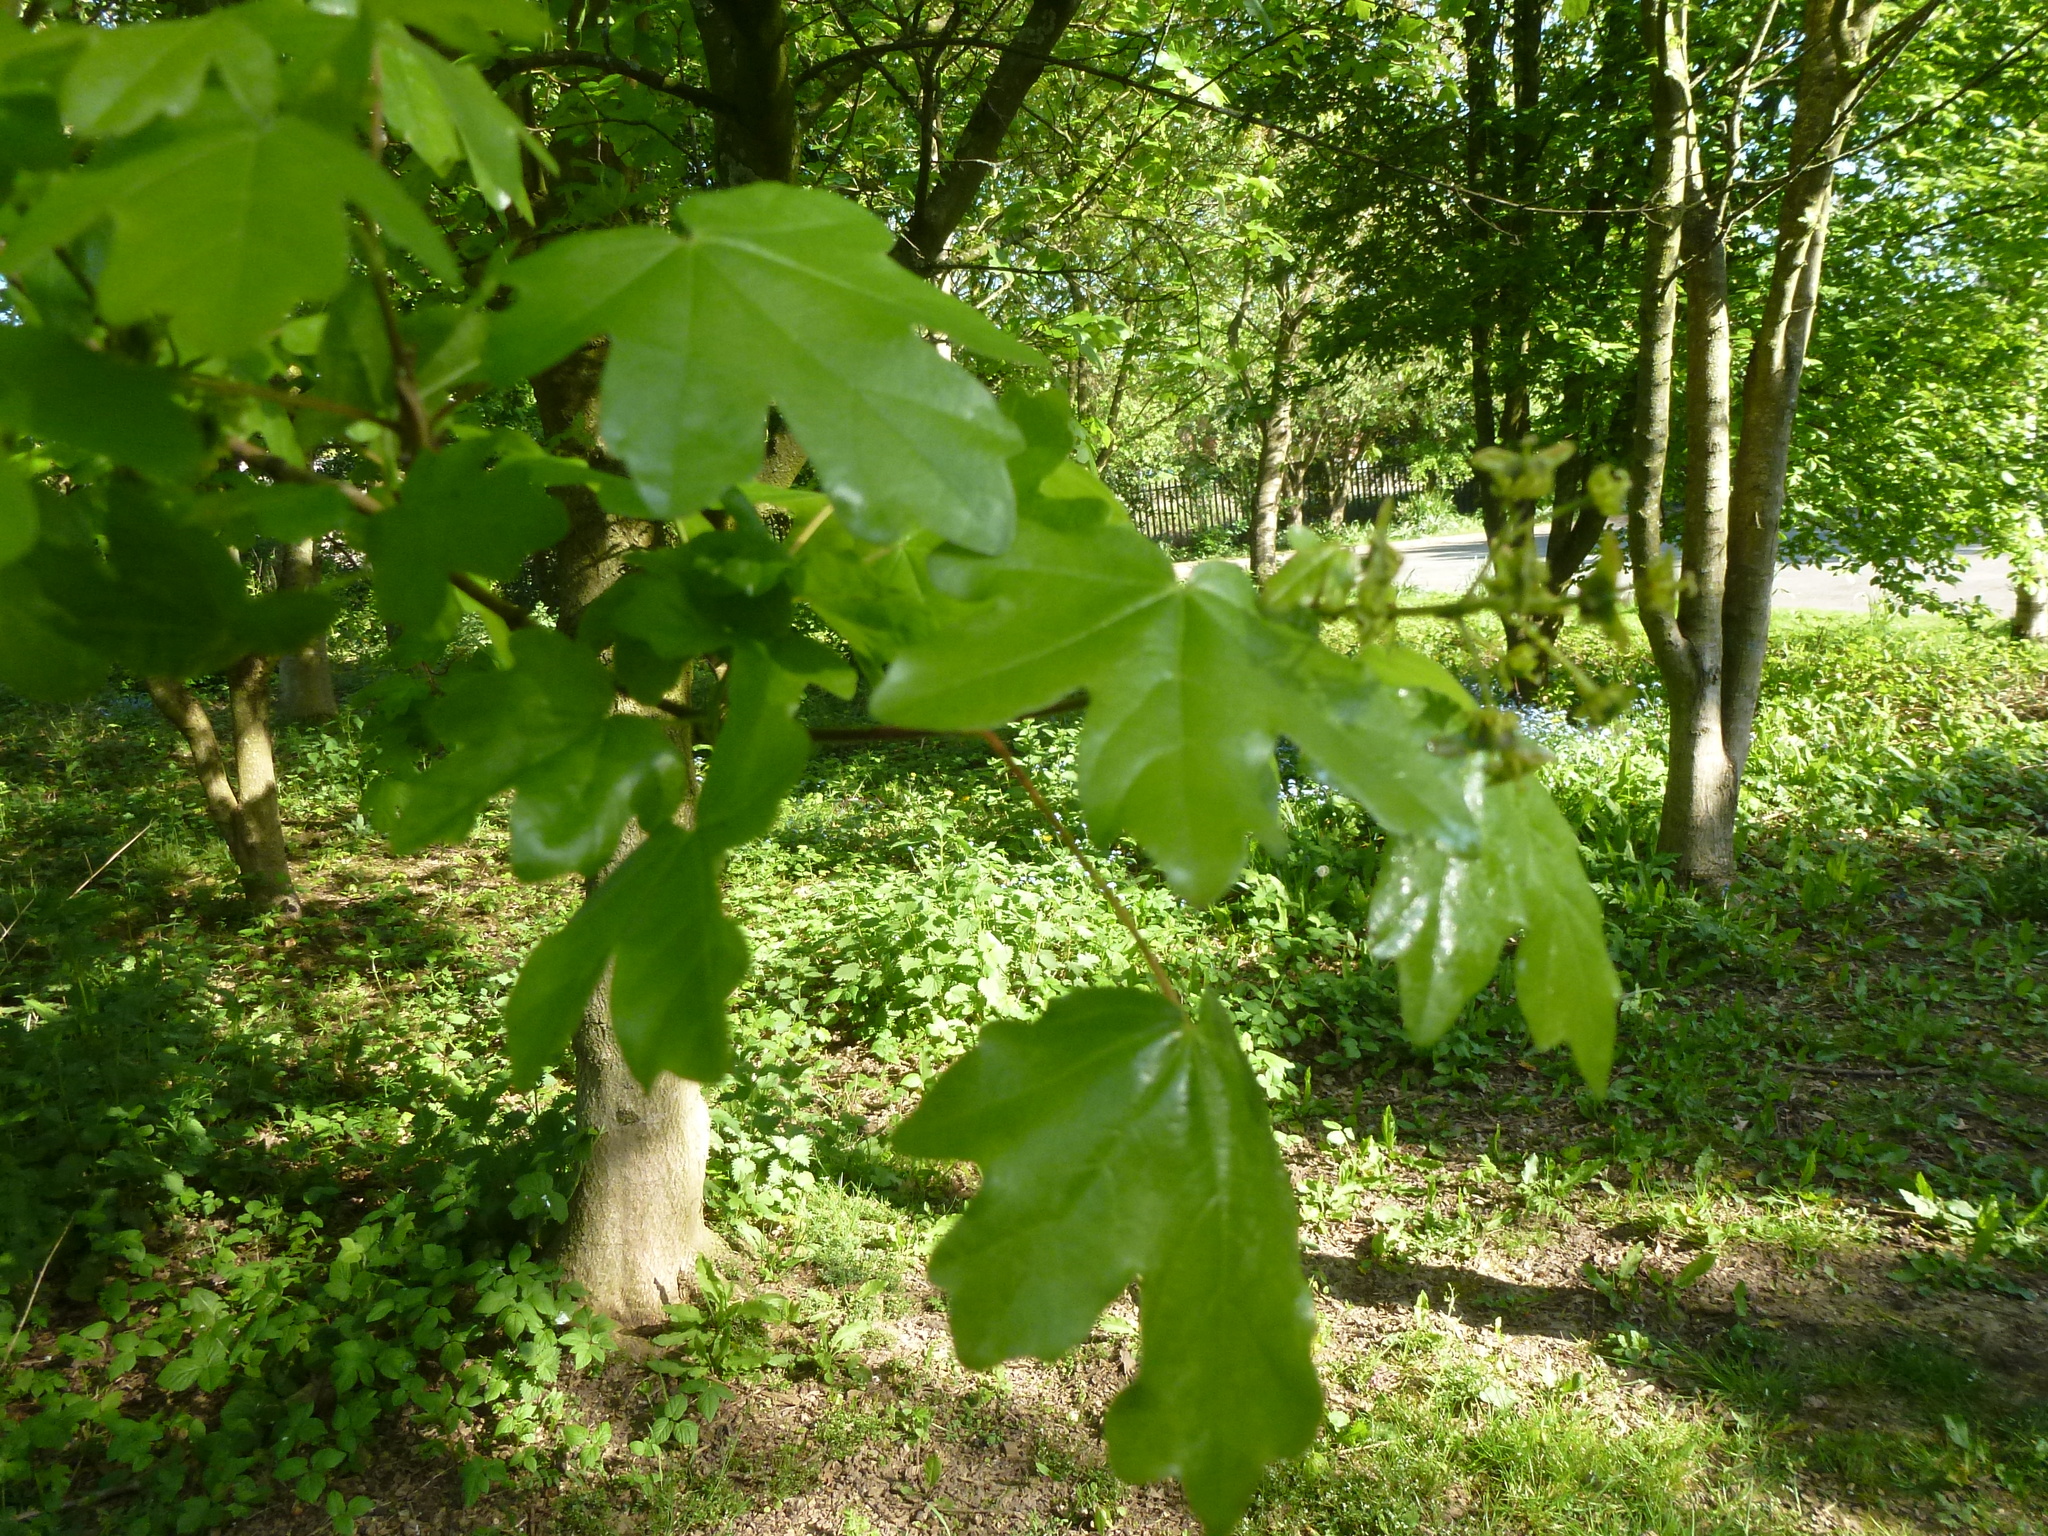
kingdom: Plantae
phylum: Tracheophyta
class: Magnoliopsida
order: Sapindales
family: Sapindaceae
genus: Acer
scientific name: Acer campestre
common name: Field maple
